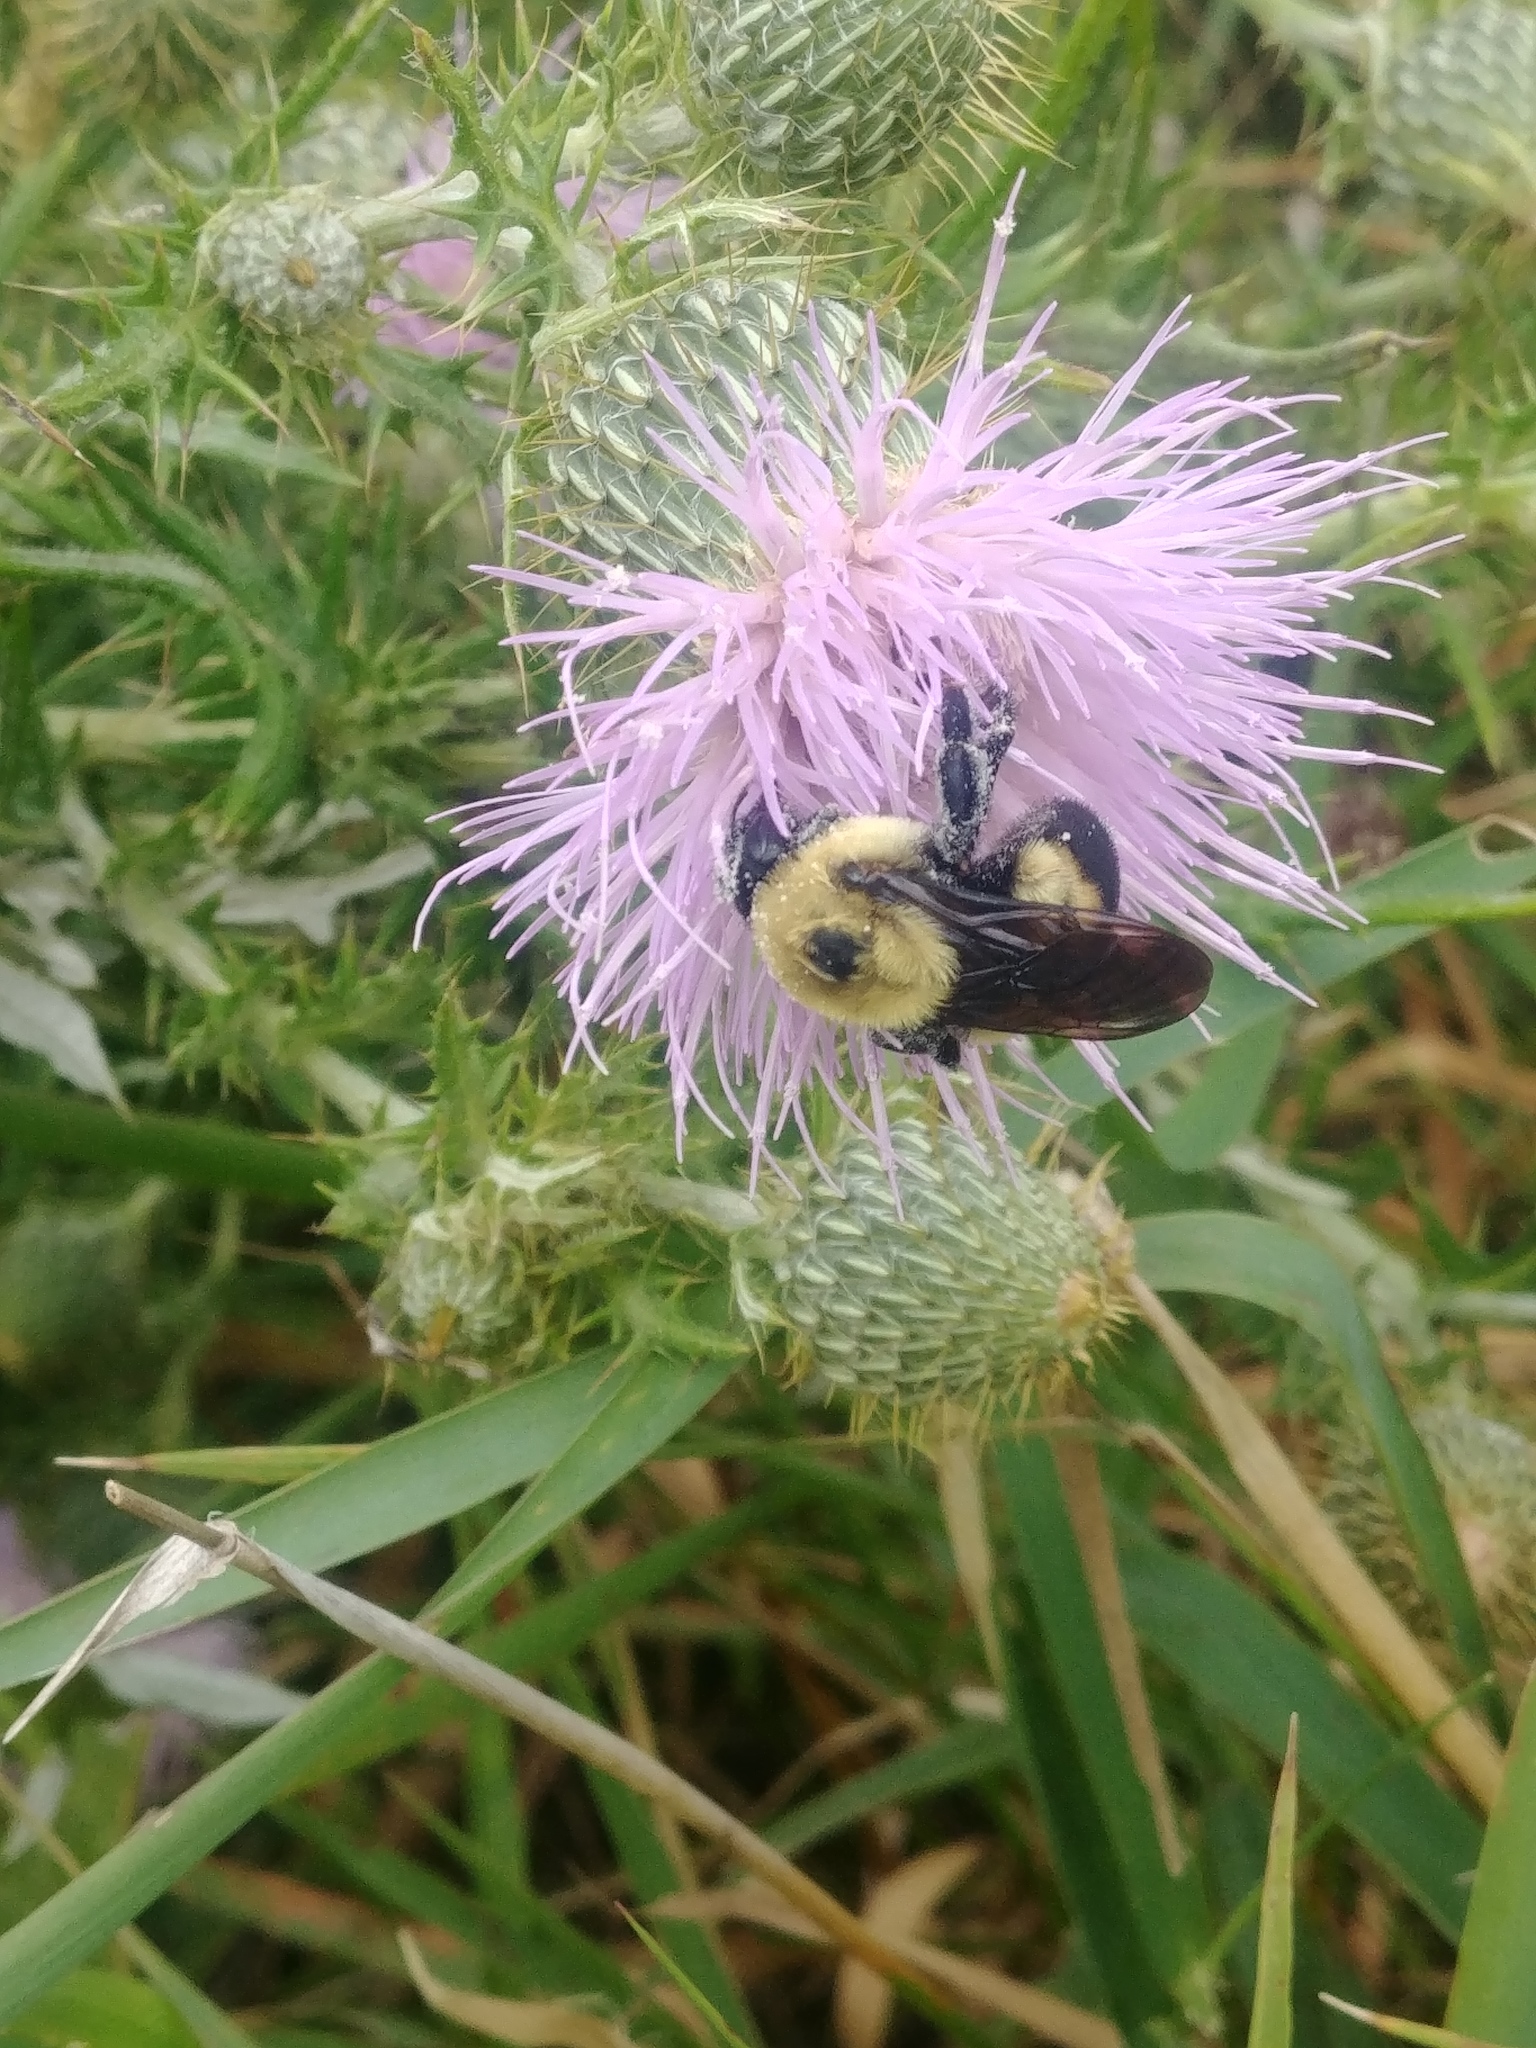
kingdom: Animalia
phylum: Arthropoda
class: Insecta
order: Hymenoptera
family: Apidae
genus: Bombus
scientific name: Bombus griseocollis
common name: Brown-belted bumble bee
